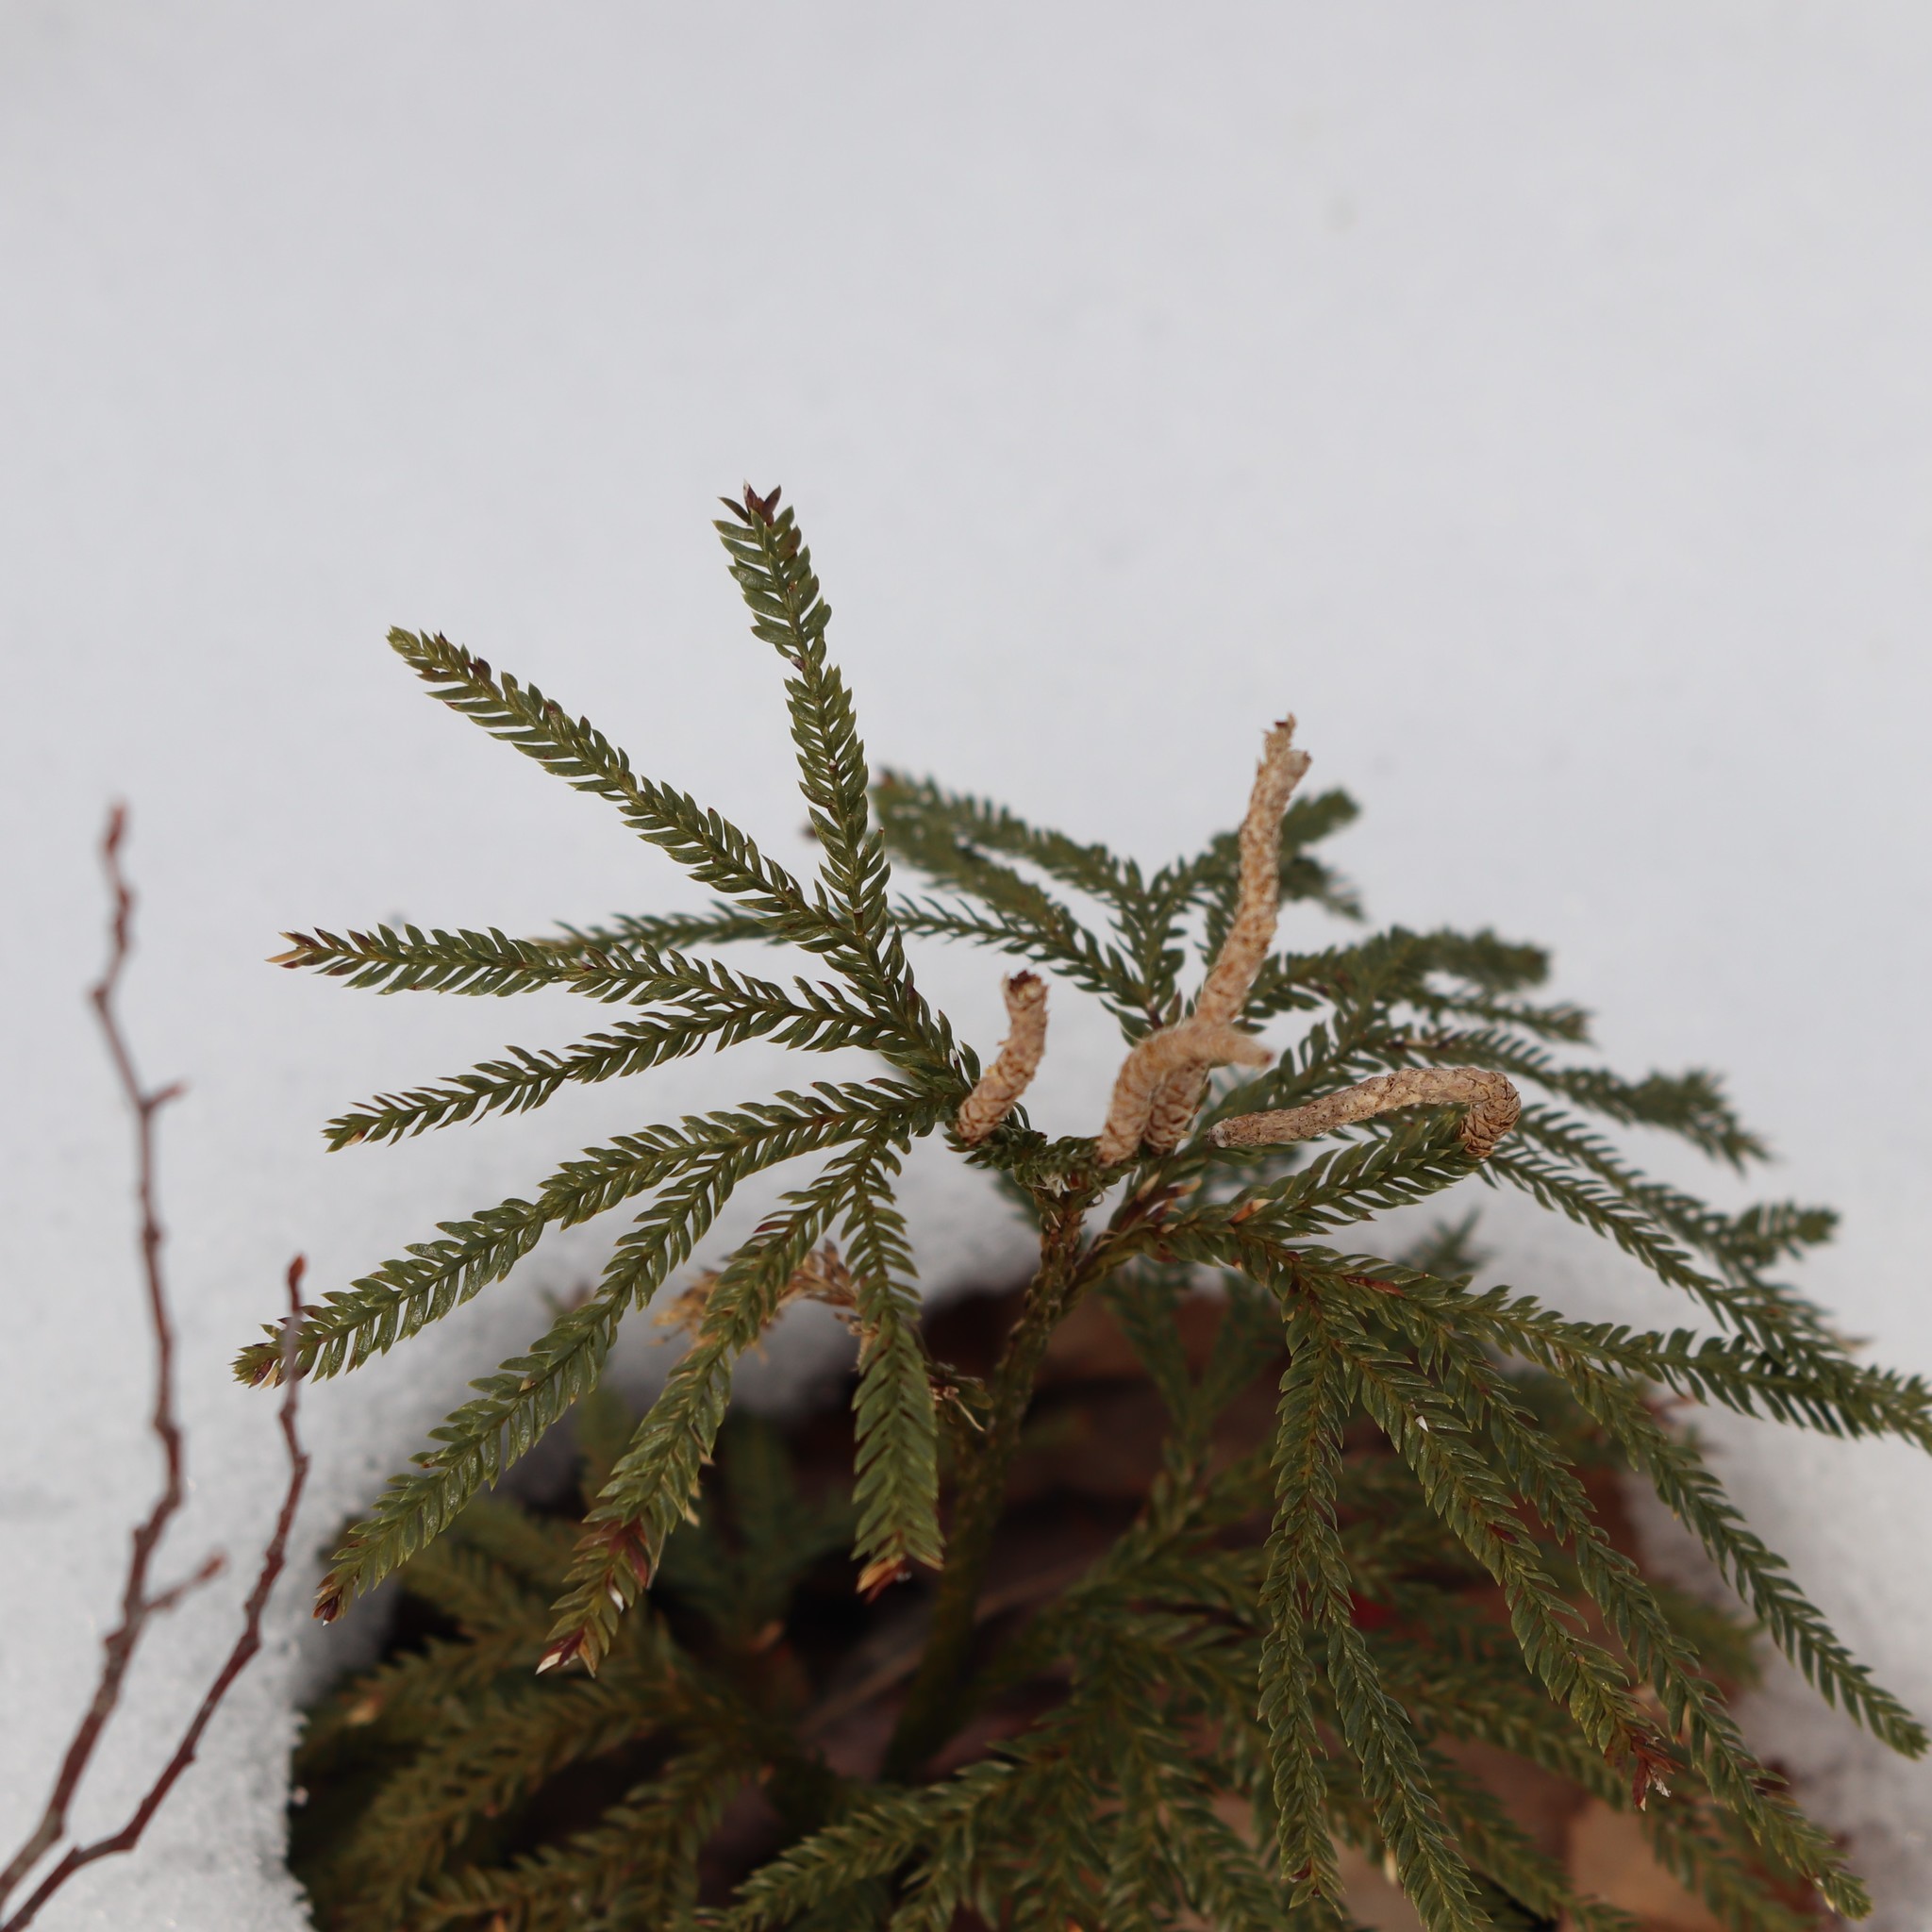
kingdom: Plantae
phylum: Tracheophyta
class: Lycopodiopsida
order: Lycopodiales
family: Lycopodiaceae
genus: Dendrolycopodium
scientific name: Dendrolycopodium obscurum
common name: Common ground-pine
